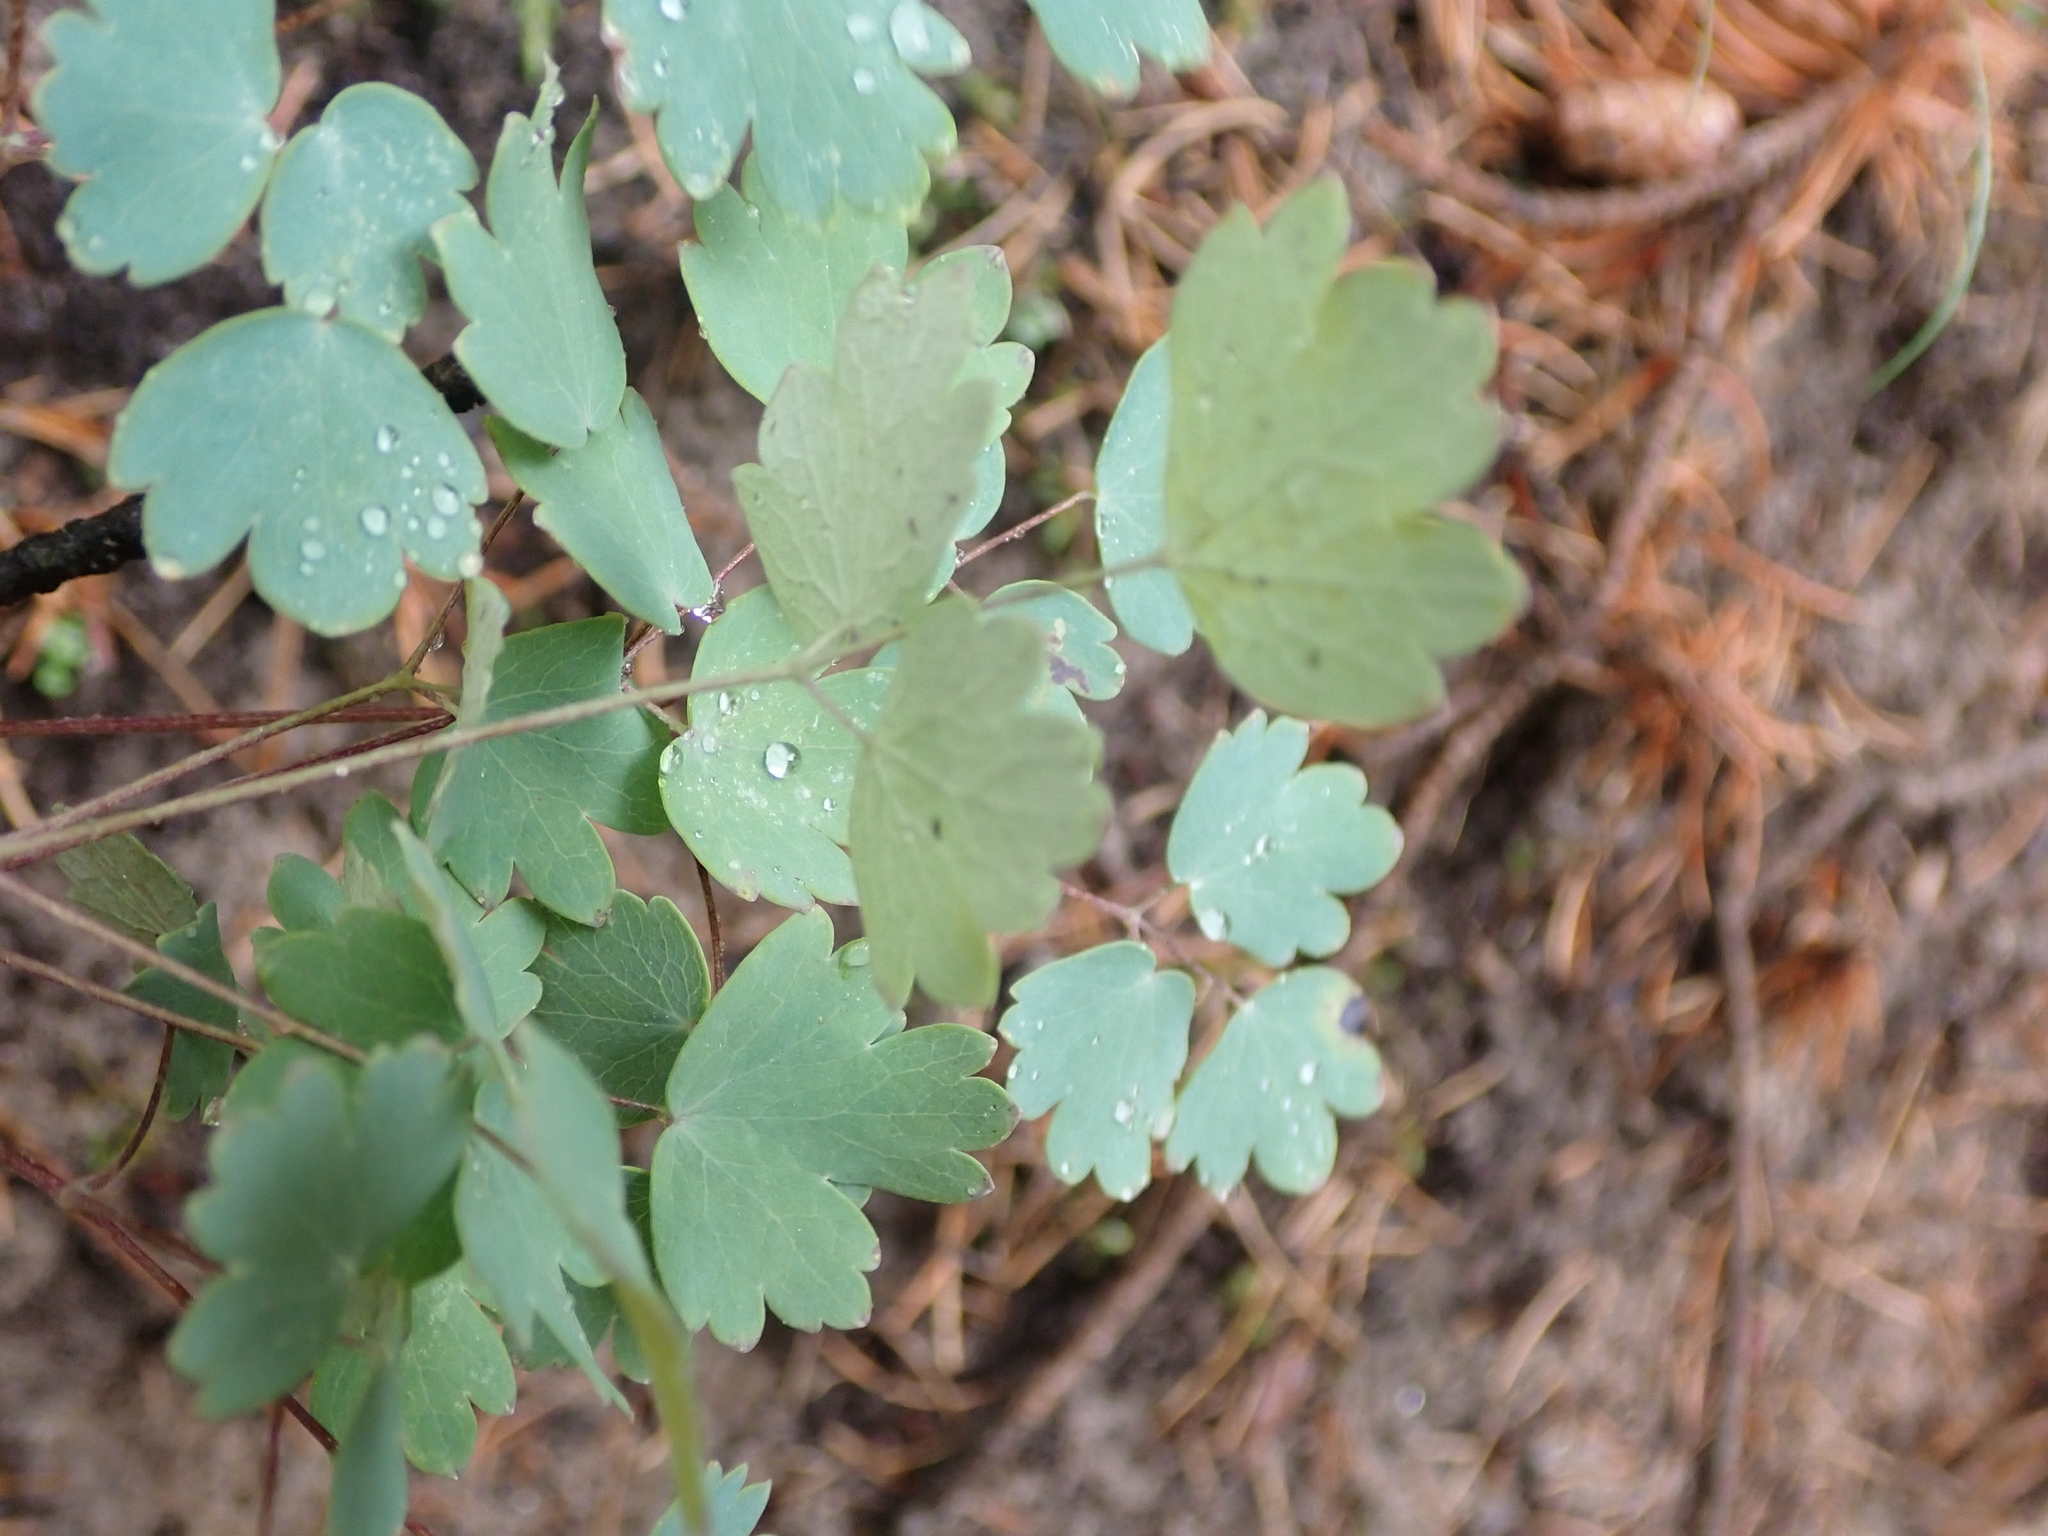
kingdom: Plantae
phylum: Tracheophyta
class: Magnoliopsida
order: Ranunculales
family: Ranunculaceae
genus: Thalictrum
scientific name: Thalictrum venulosum
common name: Early meadow-rue
